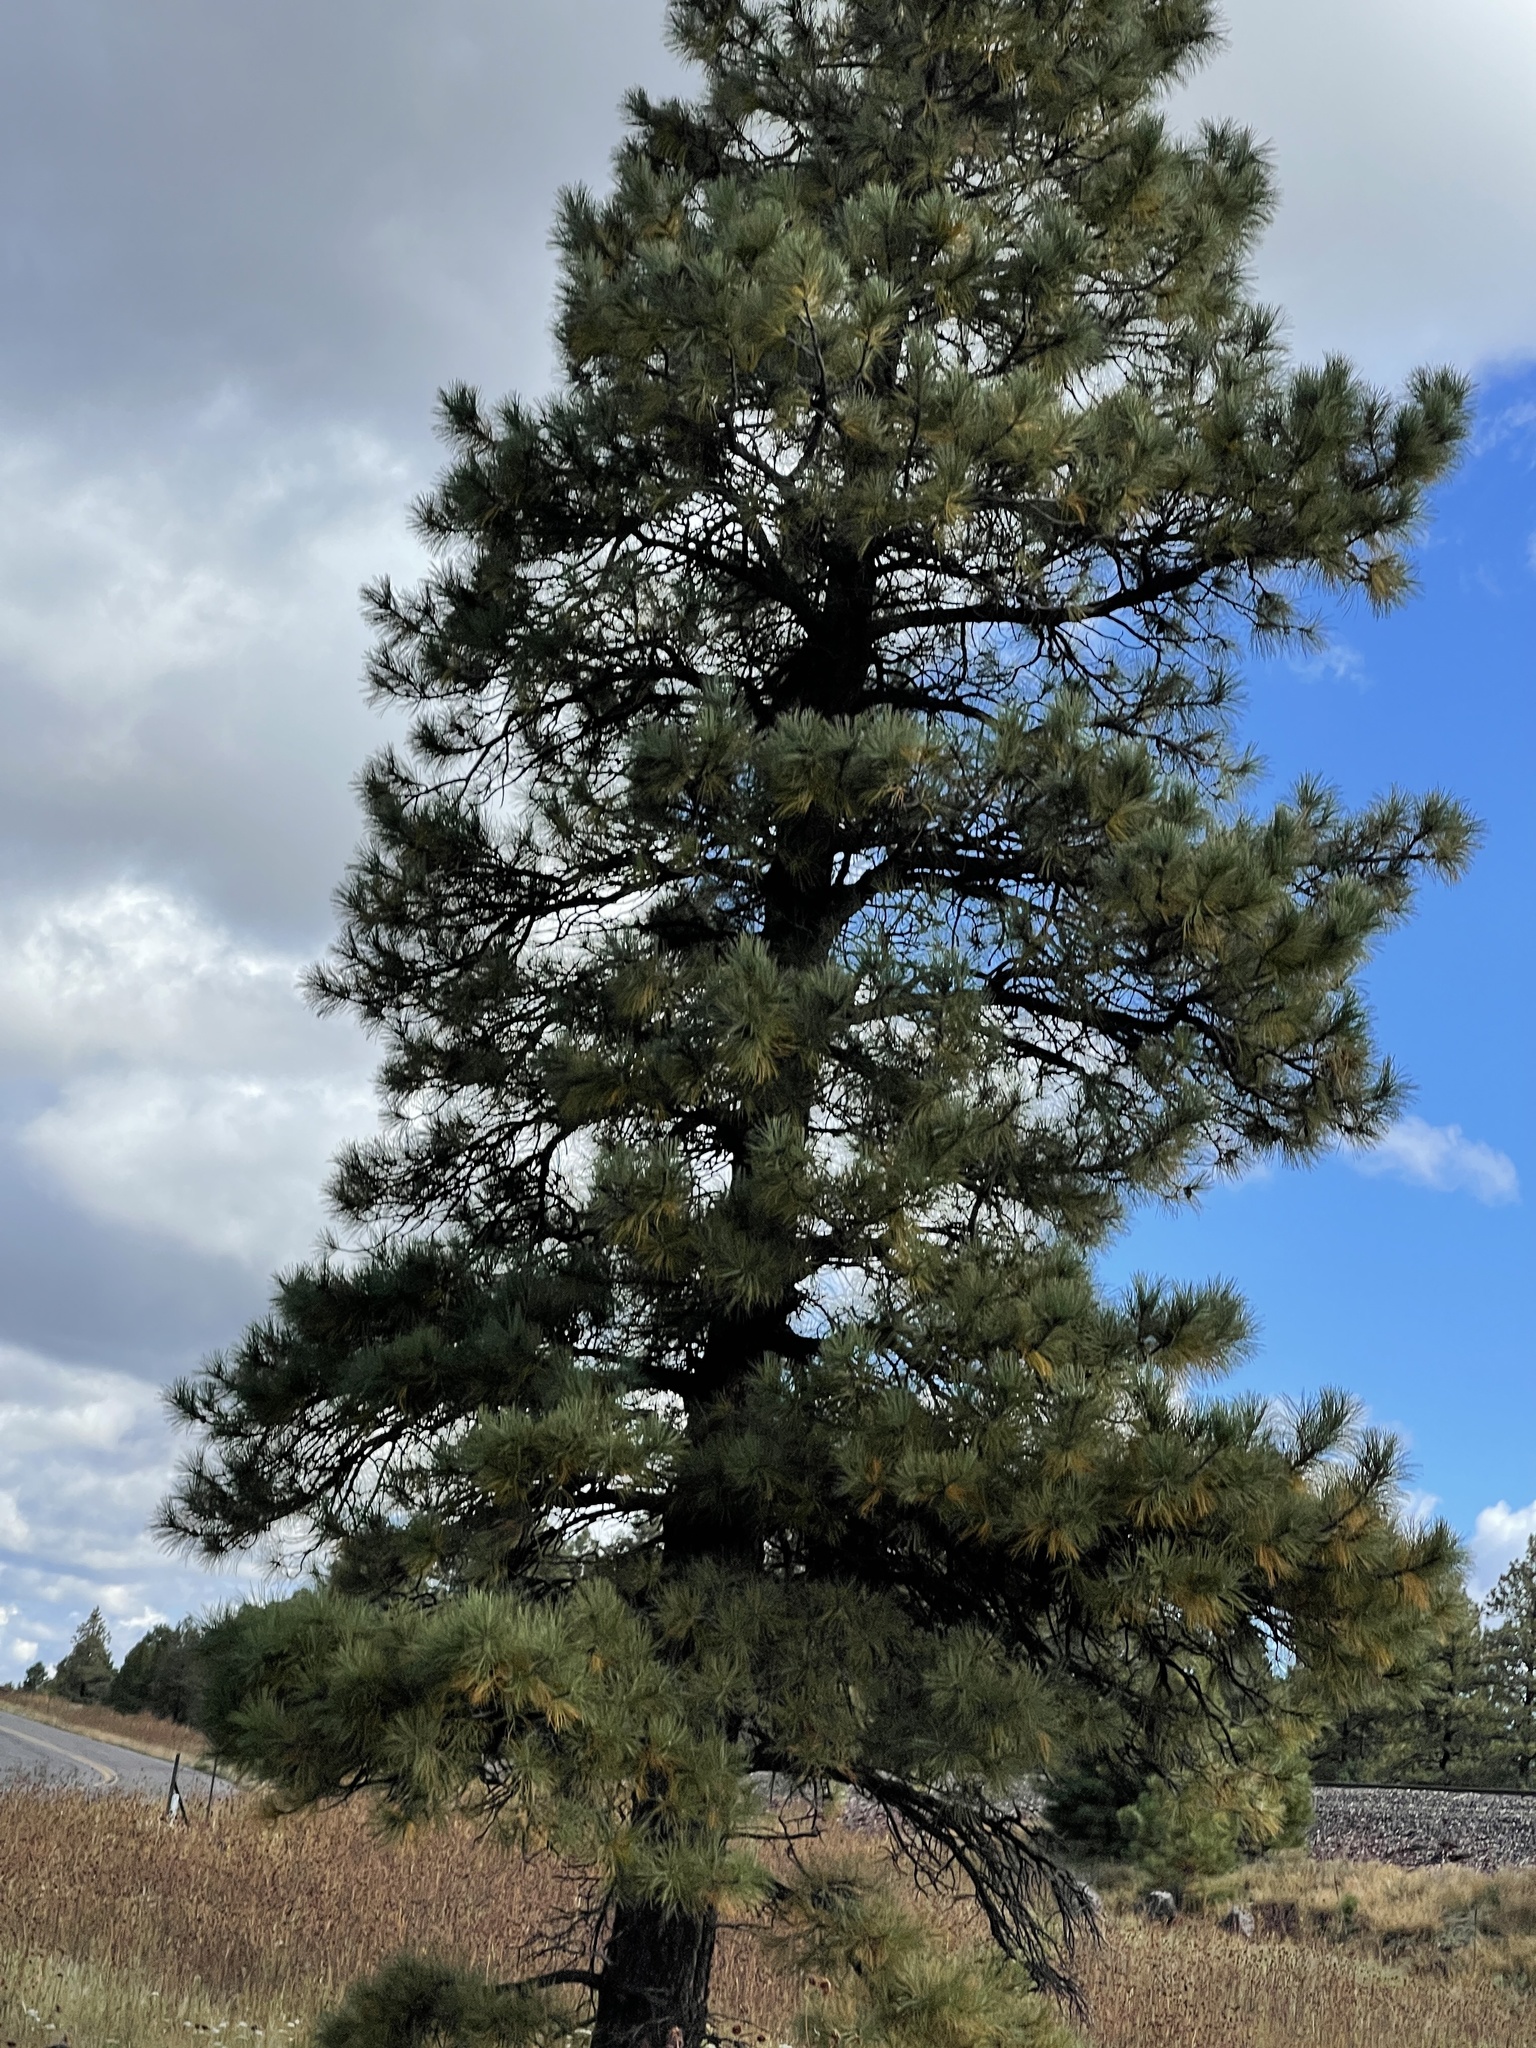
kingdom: Plantae
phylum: Tracheophyta
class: Pinopsida
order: Pinales
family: Pinaceae
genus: Pinus
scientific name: Pinus ponderosa
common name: Western yellow-pine
